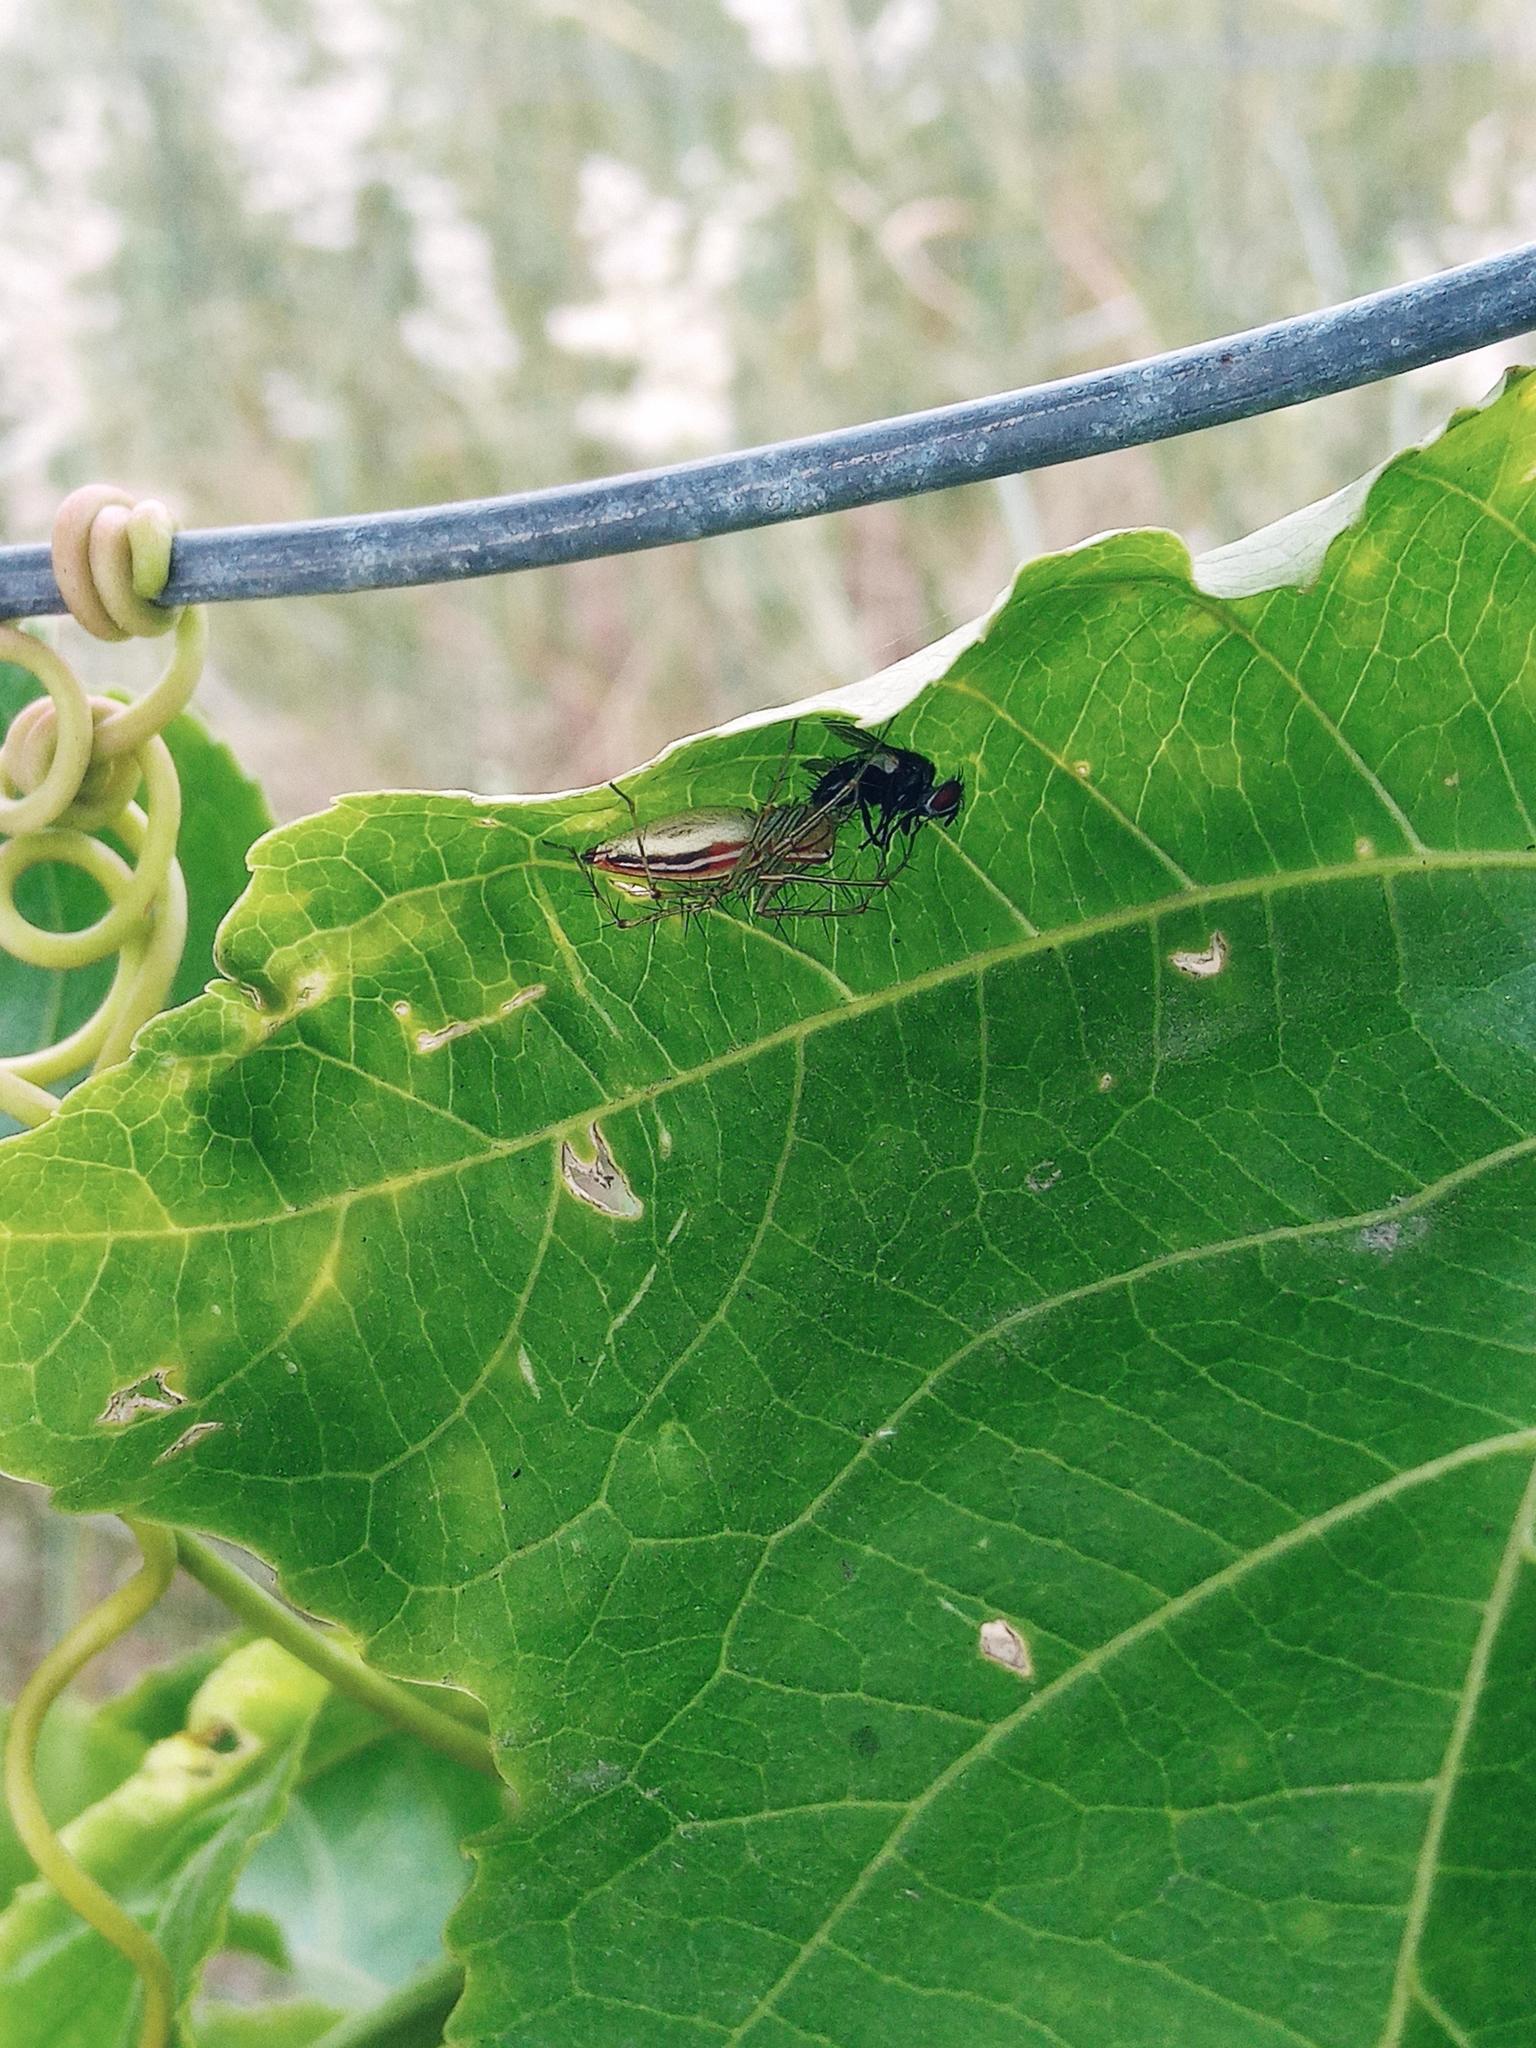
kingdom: Animalia
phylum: Arthropoda
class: Arachnida
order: Araneae
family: Oxyopidae
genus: Oxyopes
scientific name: Oxyopes macilentus
